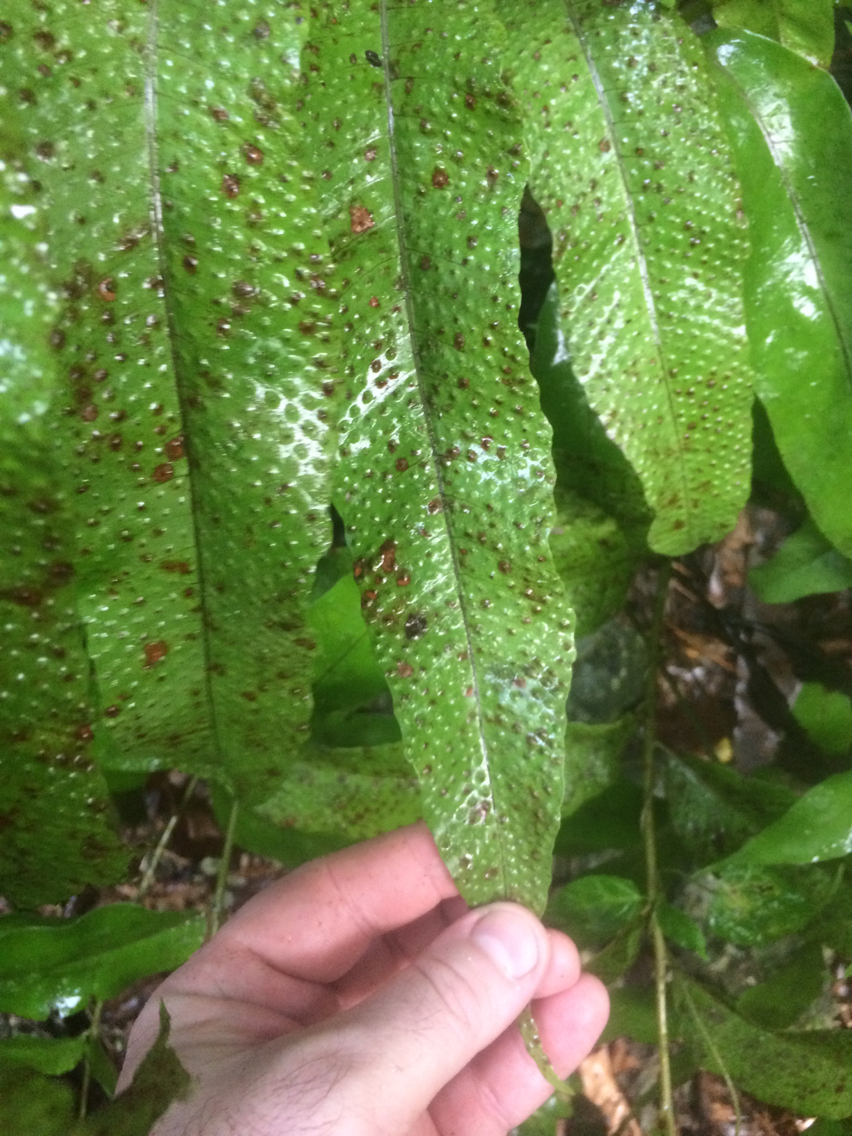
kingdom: Plantae
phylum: Tracheophyta
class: Polypodiopsida
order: Polypodiales
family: Tectariaceae
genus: Tectaria
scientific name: Tectaria crenata
